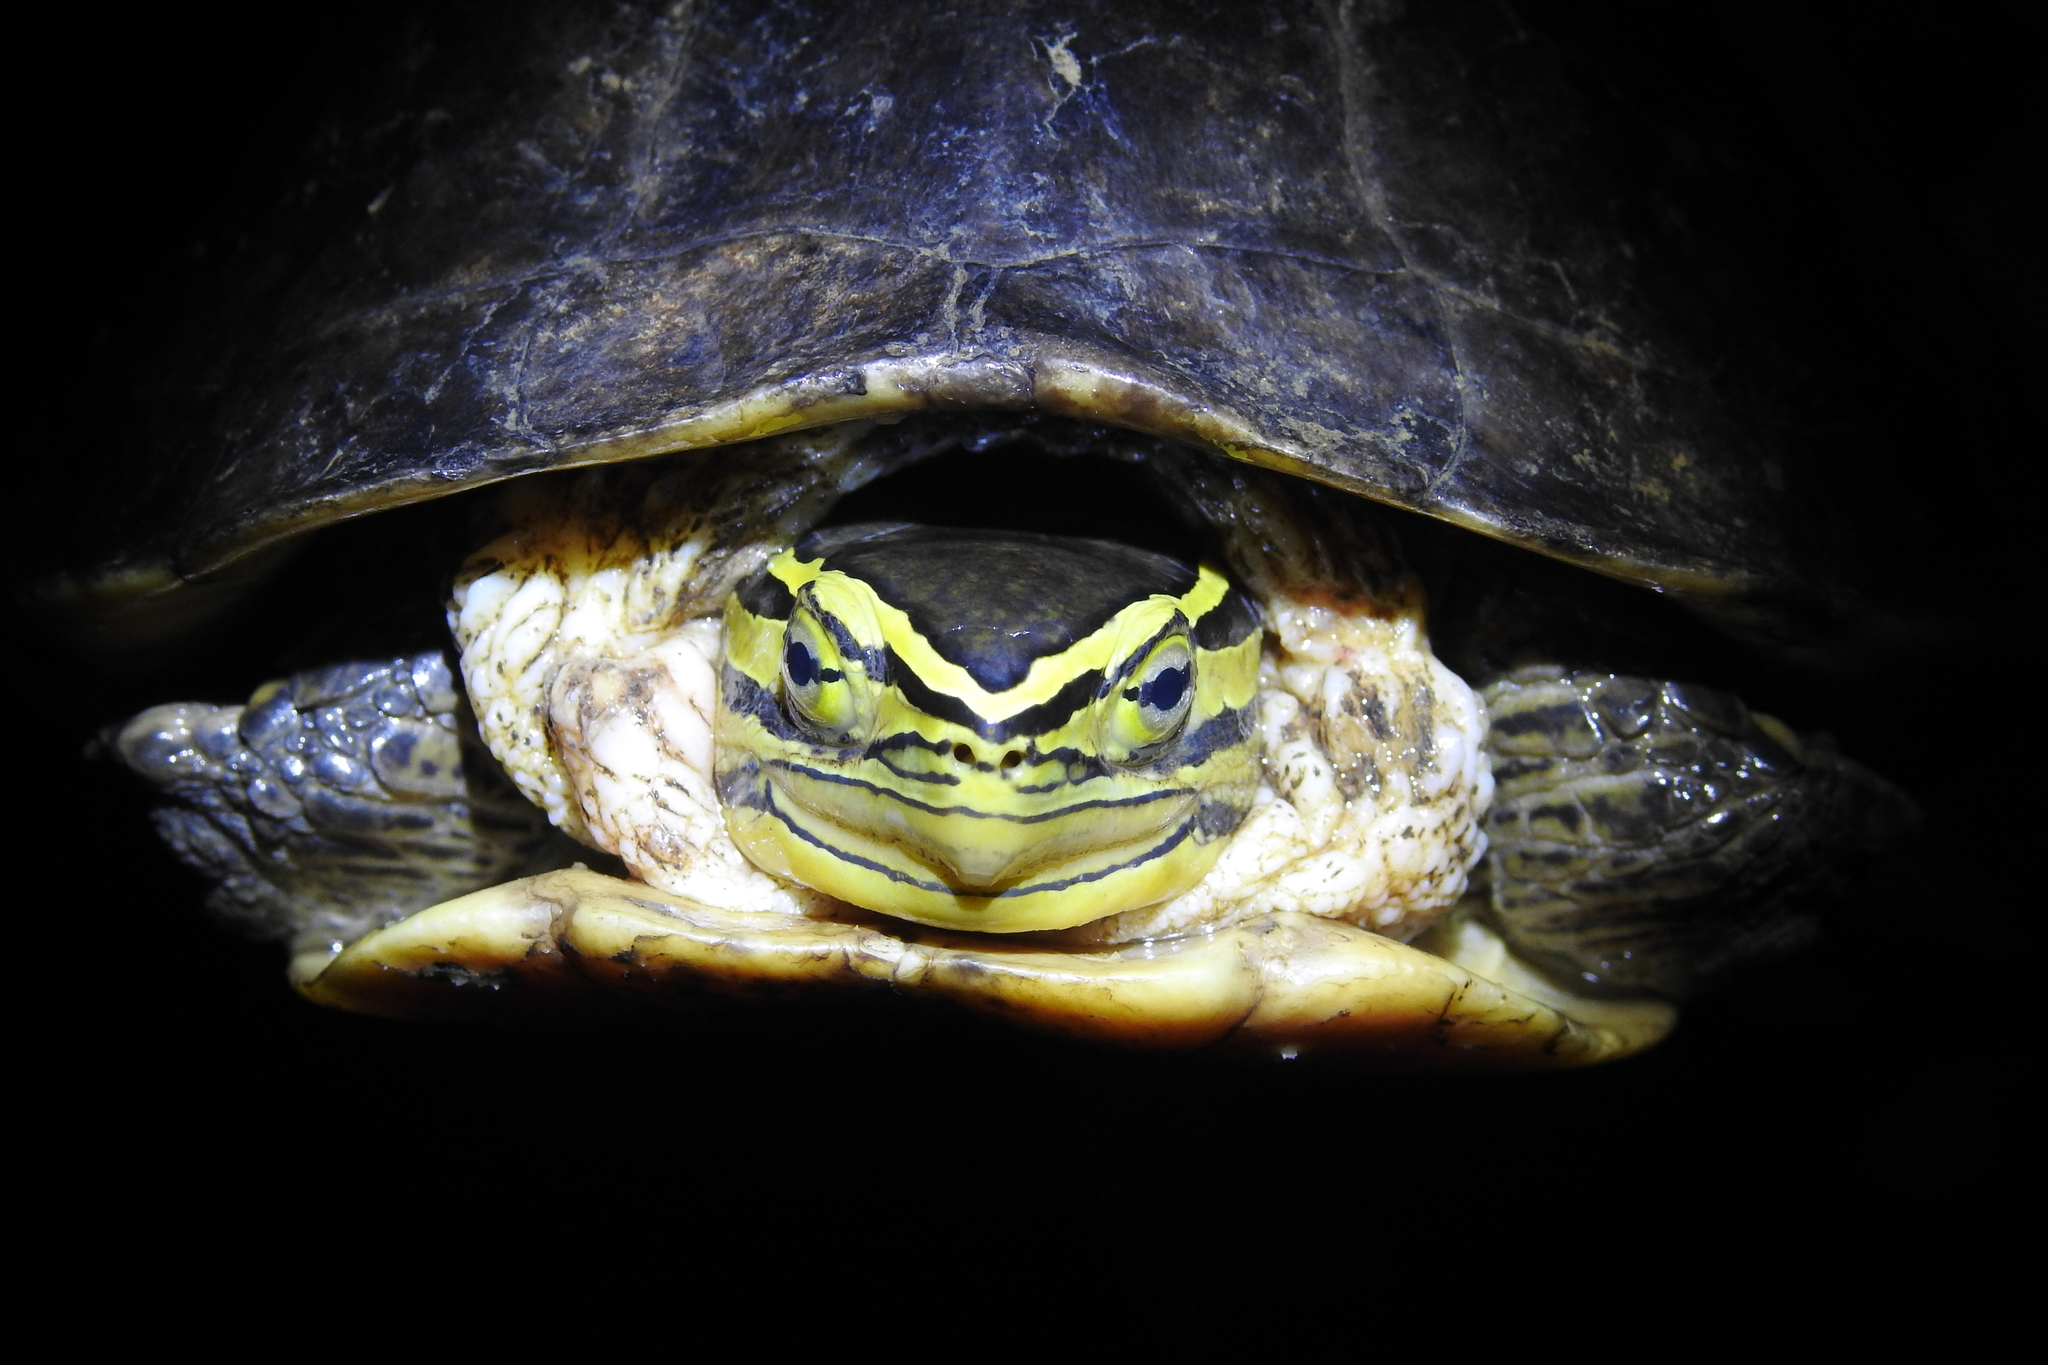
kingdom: Animalia
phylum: Chordata
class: Testudines
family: Geoemydidae
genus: Cuora
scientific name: Cuora amboinensis
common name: Southeast asian box turtle
